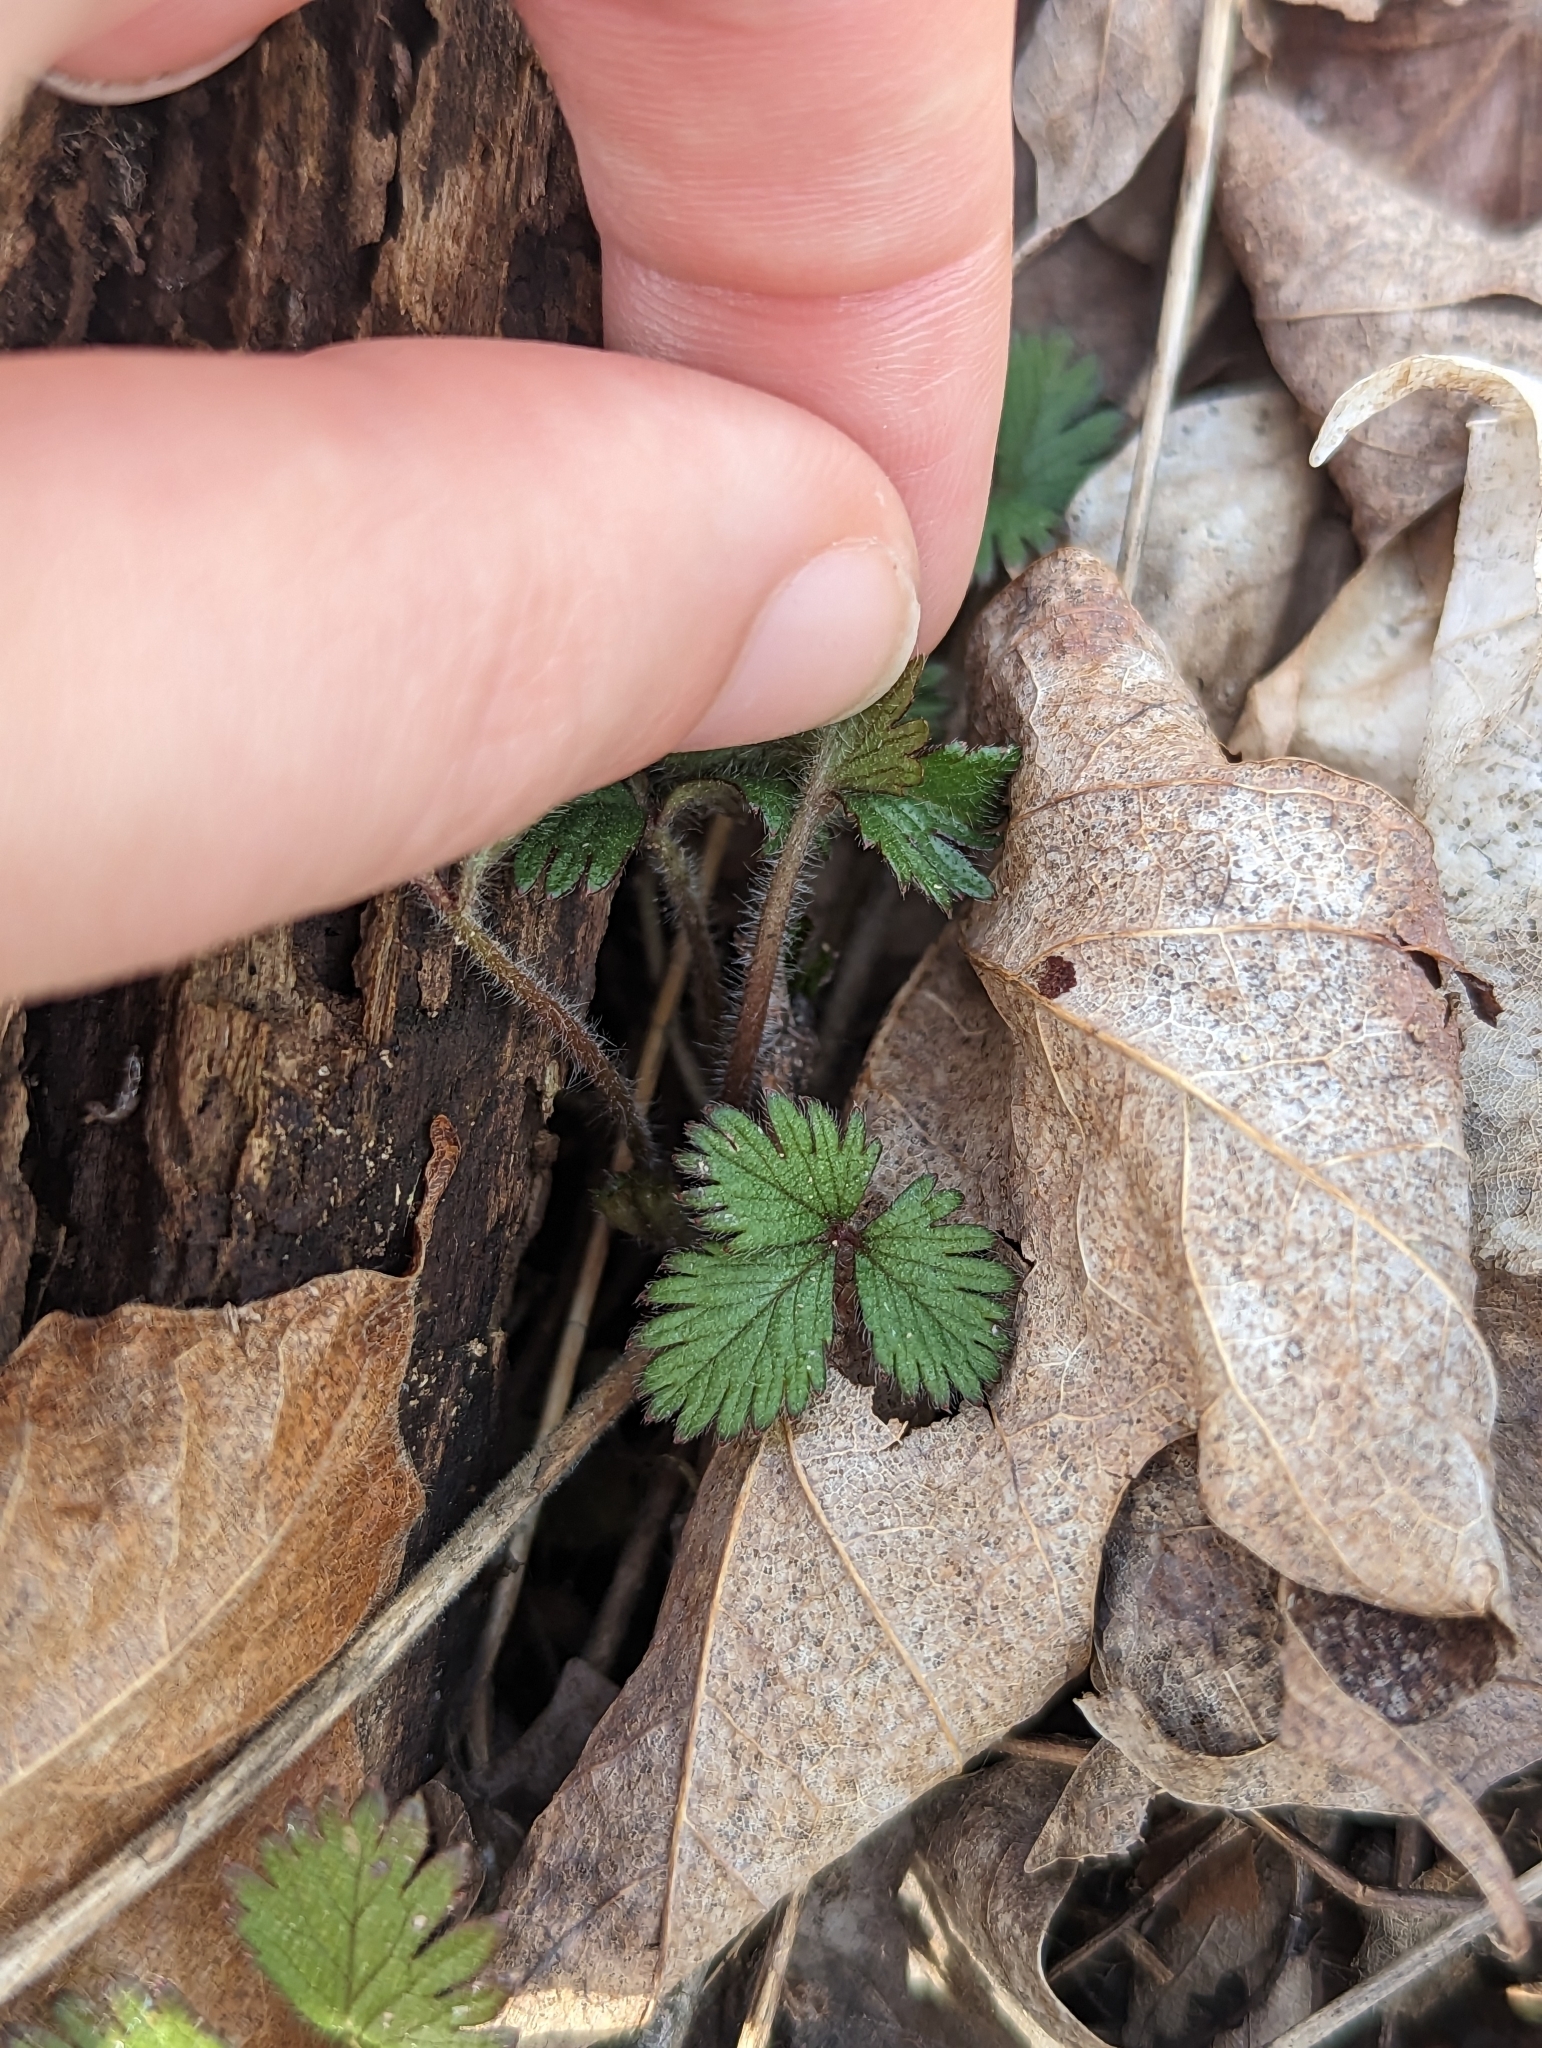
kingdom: Plantae
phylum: Tracheophyta
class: Magnoliopsida
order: Rosales
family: Rosaceae
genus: Potentilla
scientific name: Potentilla indica
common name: Yellow-flowered strawberry
